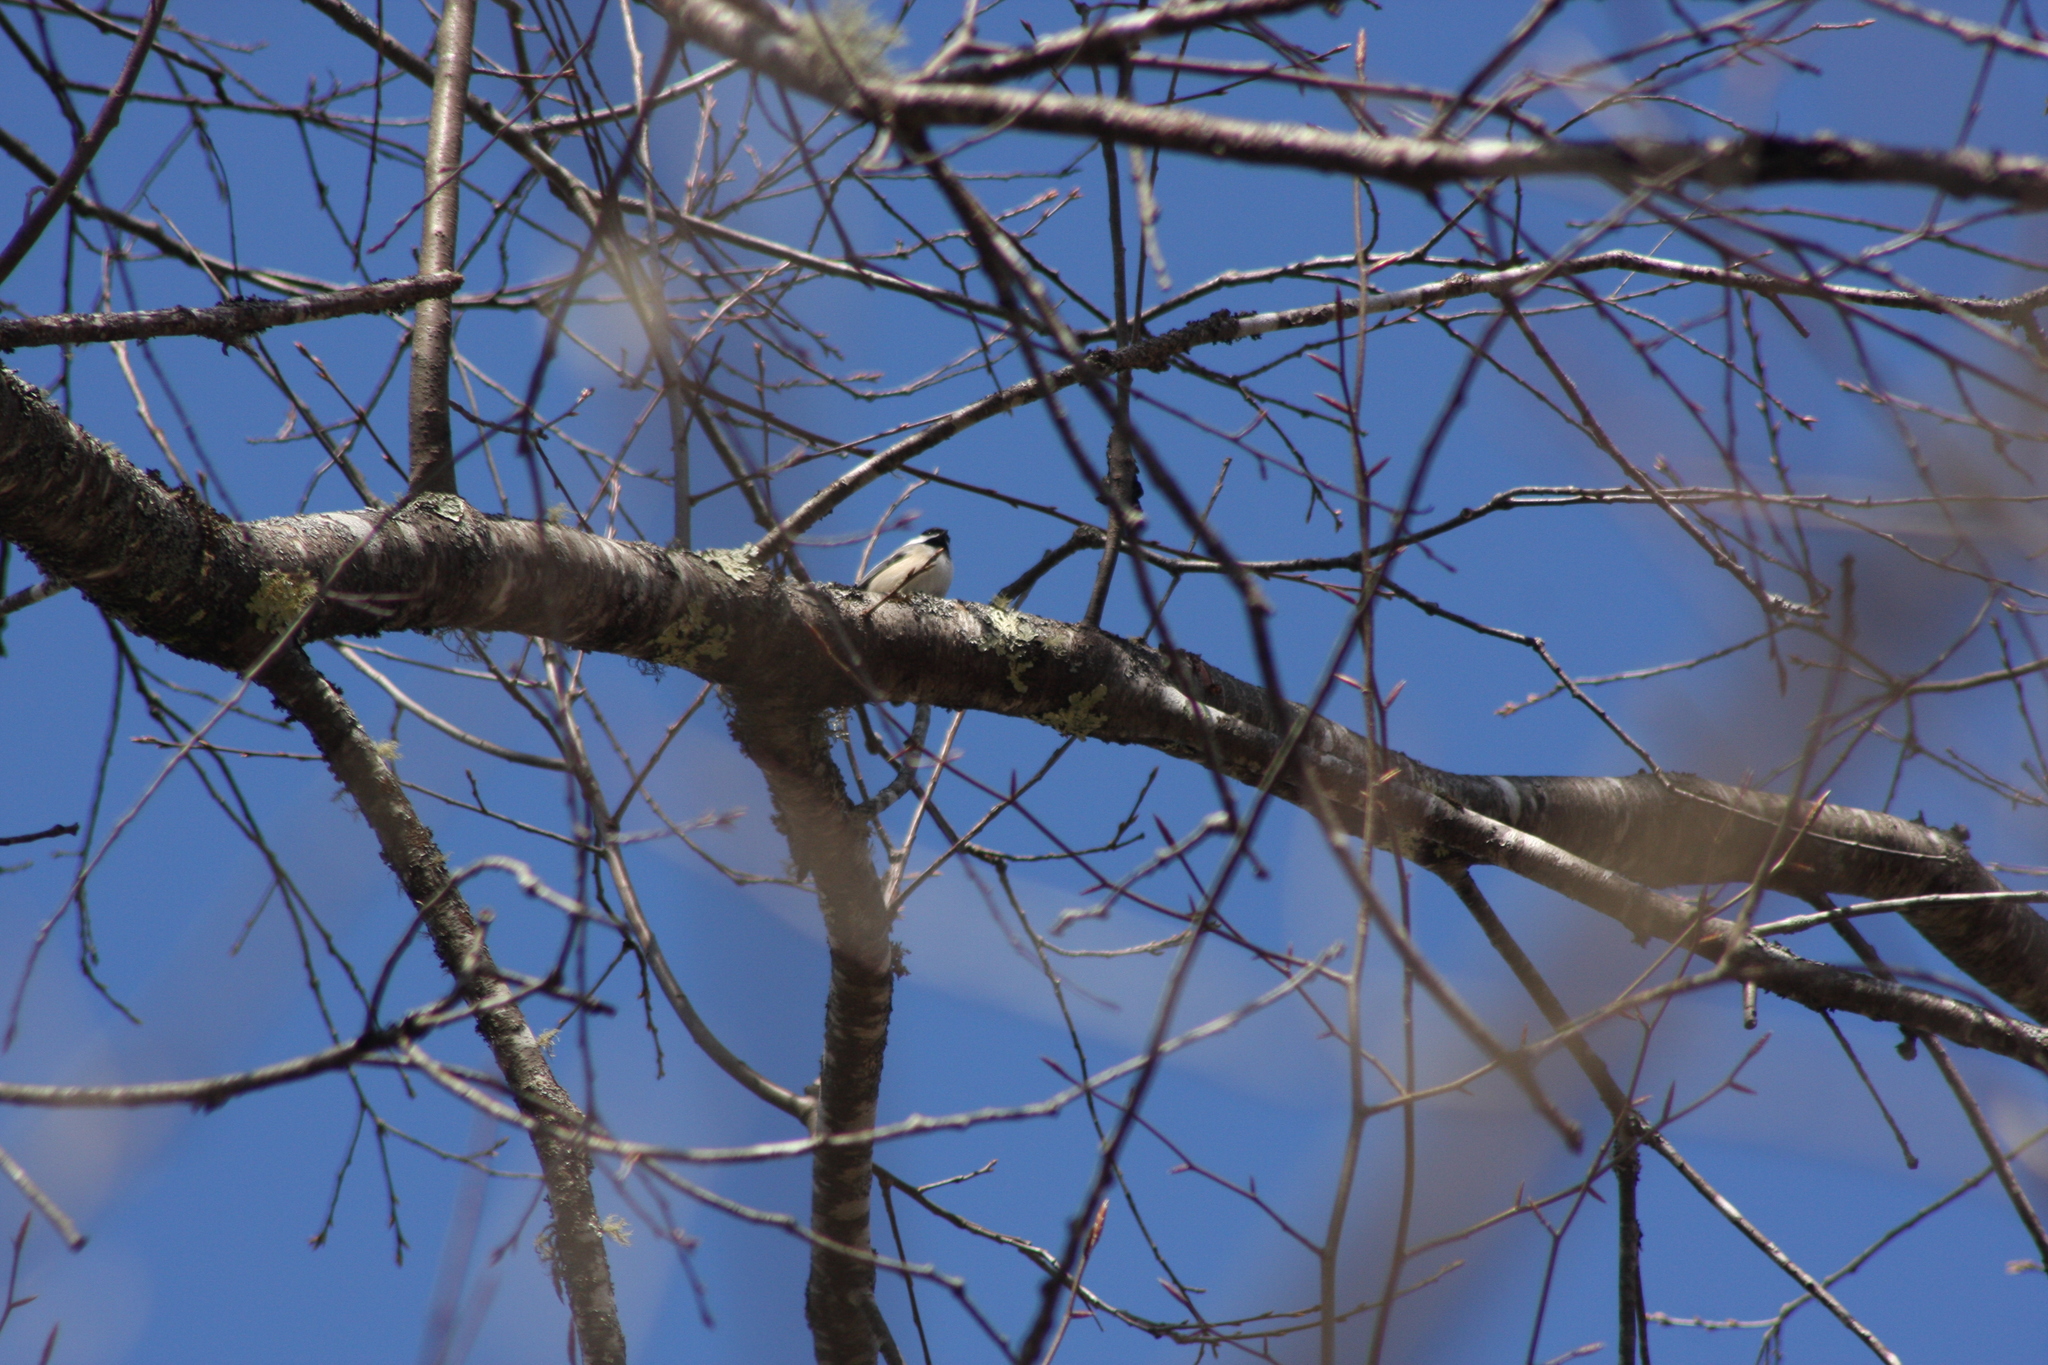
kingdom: Animalia
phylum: Chordata
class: Aves
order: Passeriformes
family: Paridae
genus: Poecile
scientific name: Poecile atricapillus
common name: Black-capped chickadee
